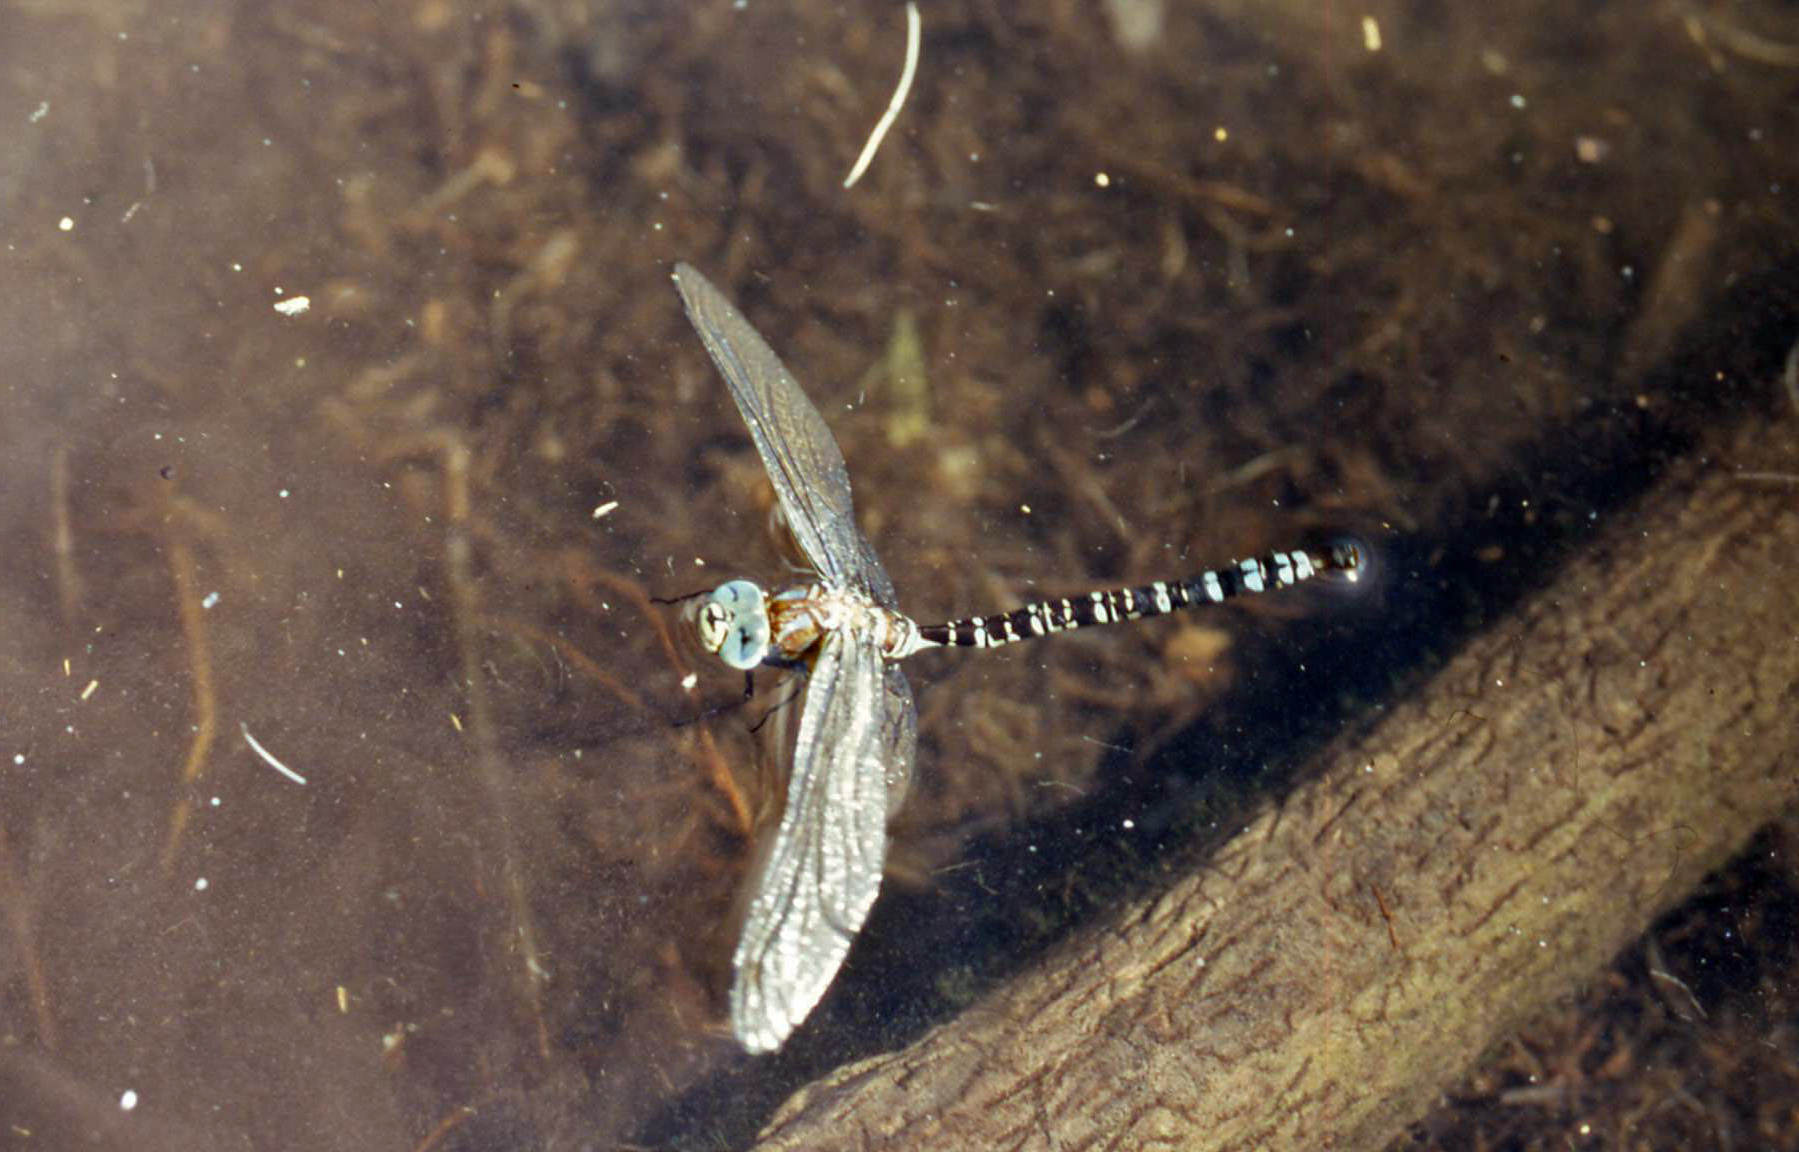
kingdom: Animalia
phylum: Arthropoda
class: Insecta
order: Odonata
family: Aeshnidae
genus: Aeshna
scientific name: Aeshna crenata
